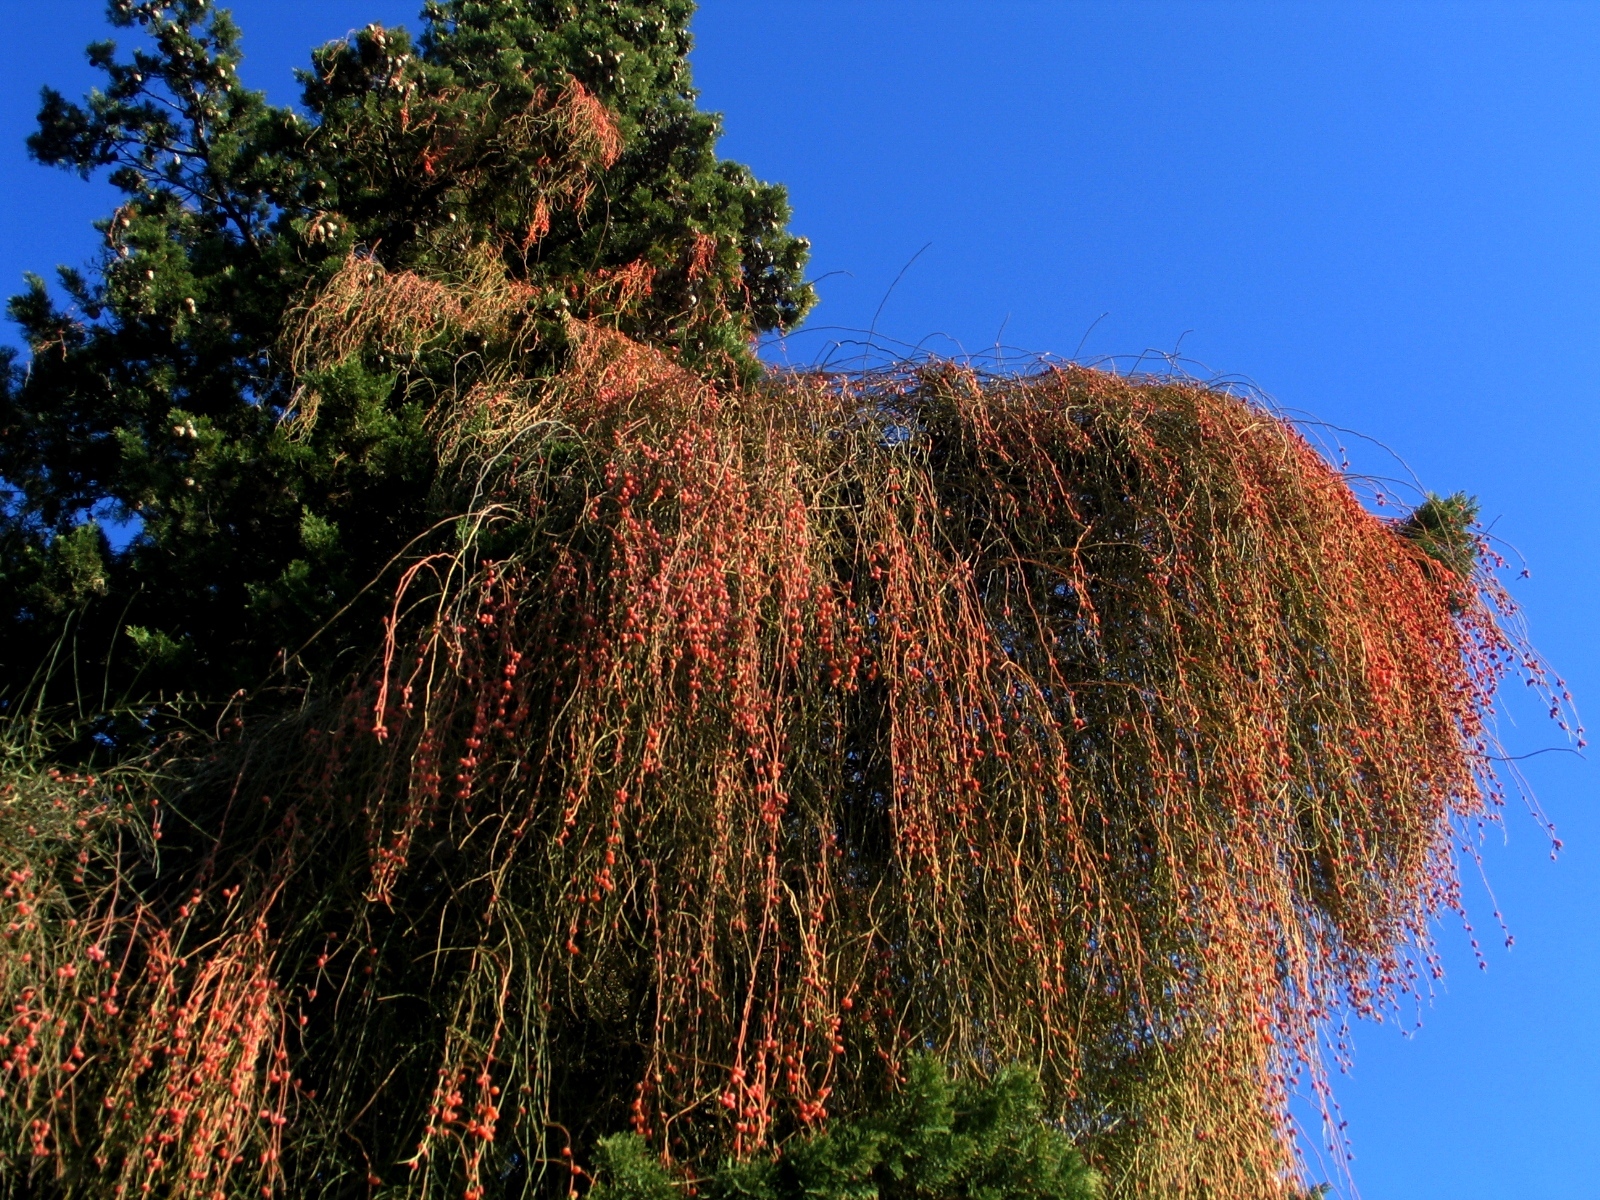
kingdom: Plantae
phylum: Tracheophyta
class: Gnetopsida
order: Ephedrales
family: Ephedraceae
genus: Ephedra
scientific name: Ephedra foeminea
